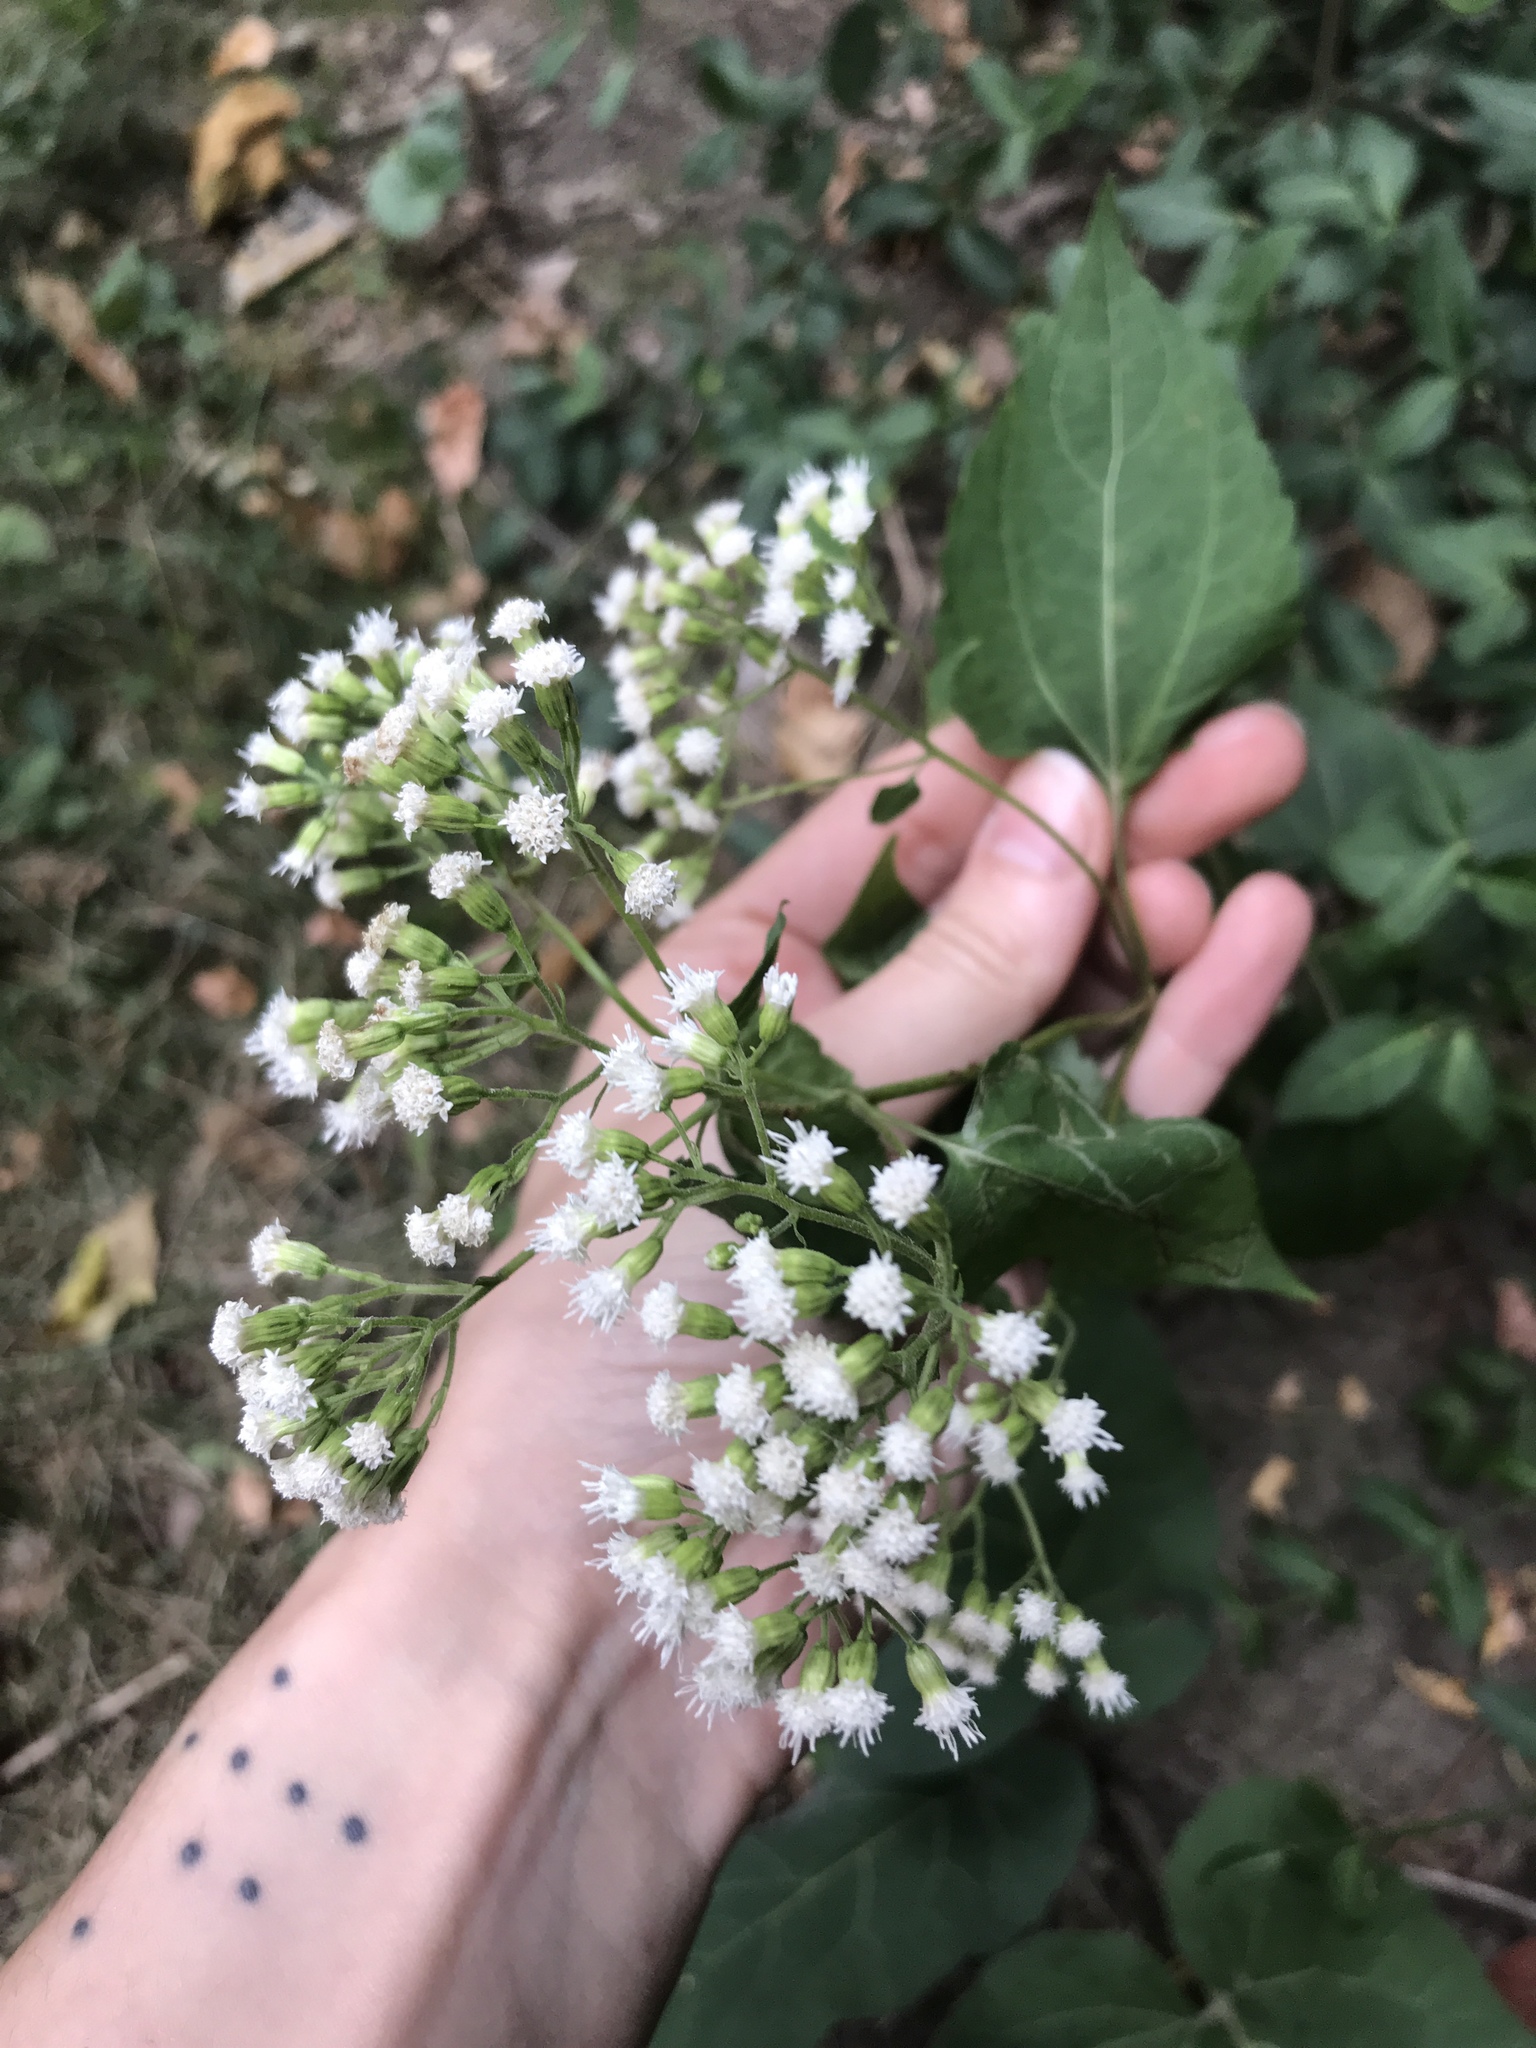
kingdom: Plantae
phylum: Tracheophyta
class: Magnoliopsida
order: Asterales
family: Asteraceae
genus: Ageratina
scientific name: Ageratina altissima
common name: White snakeroot
